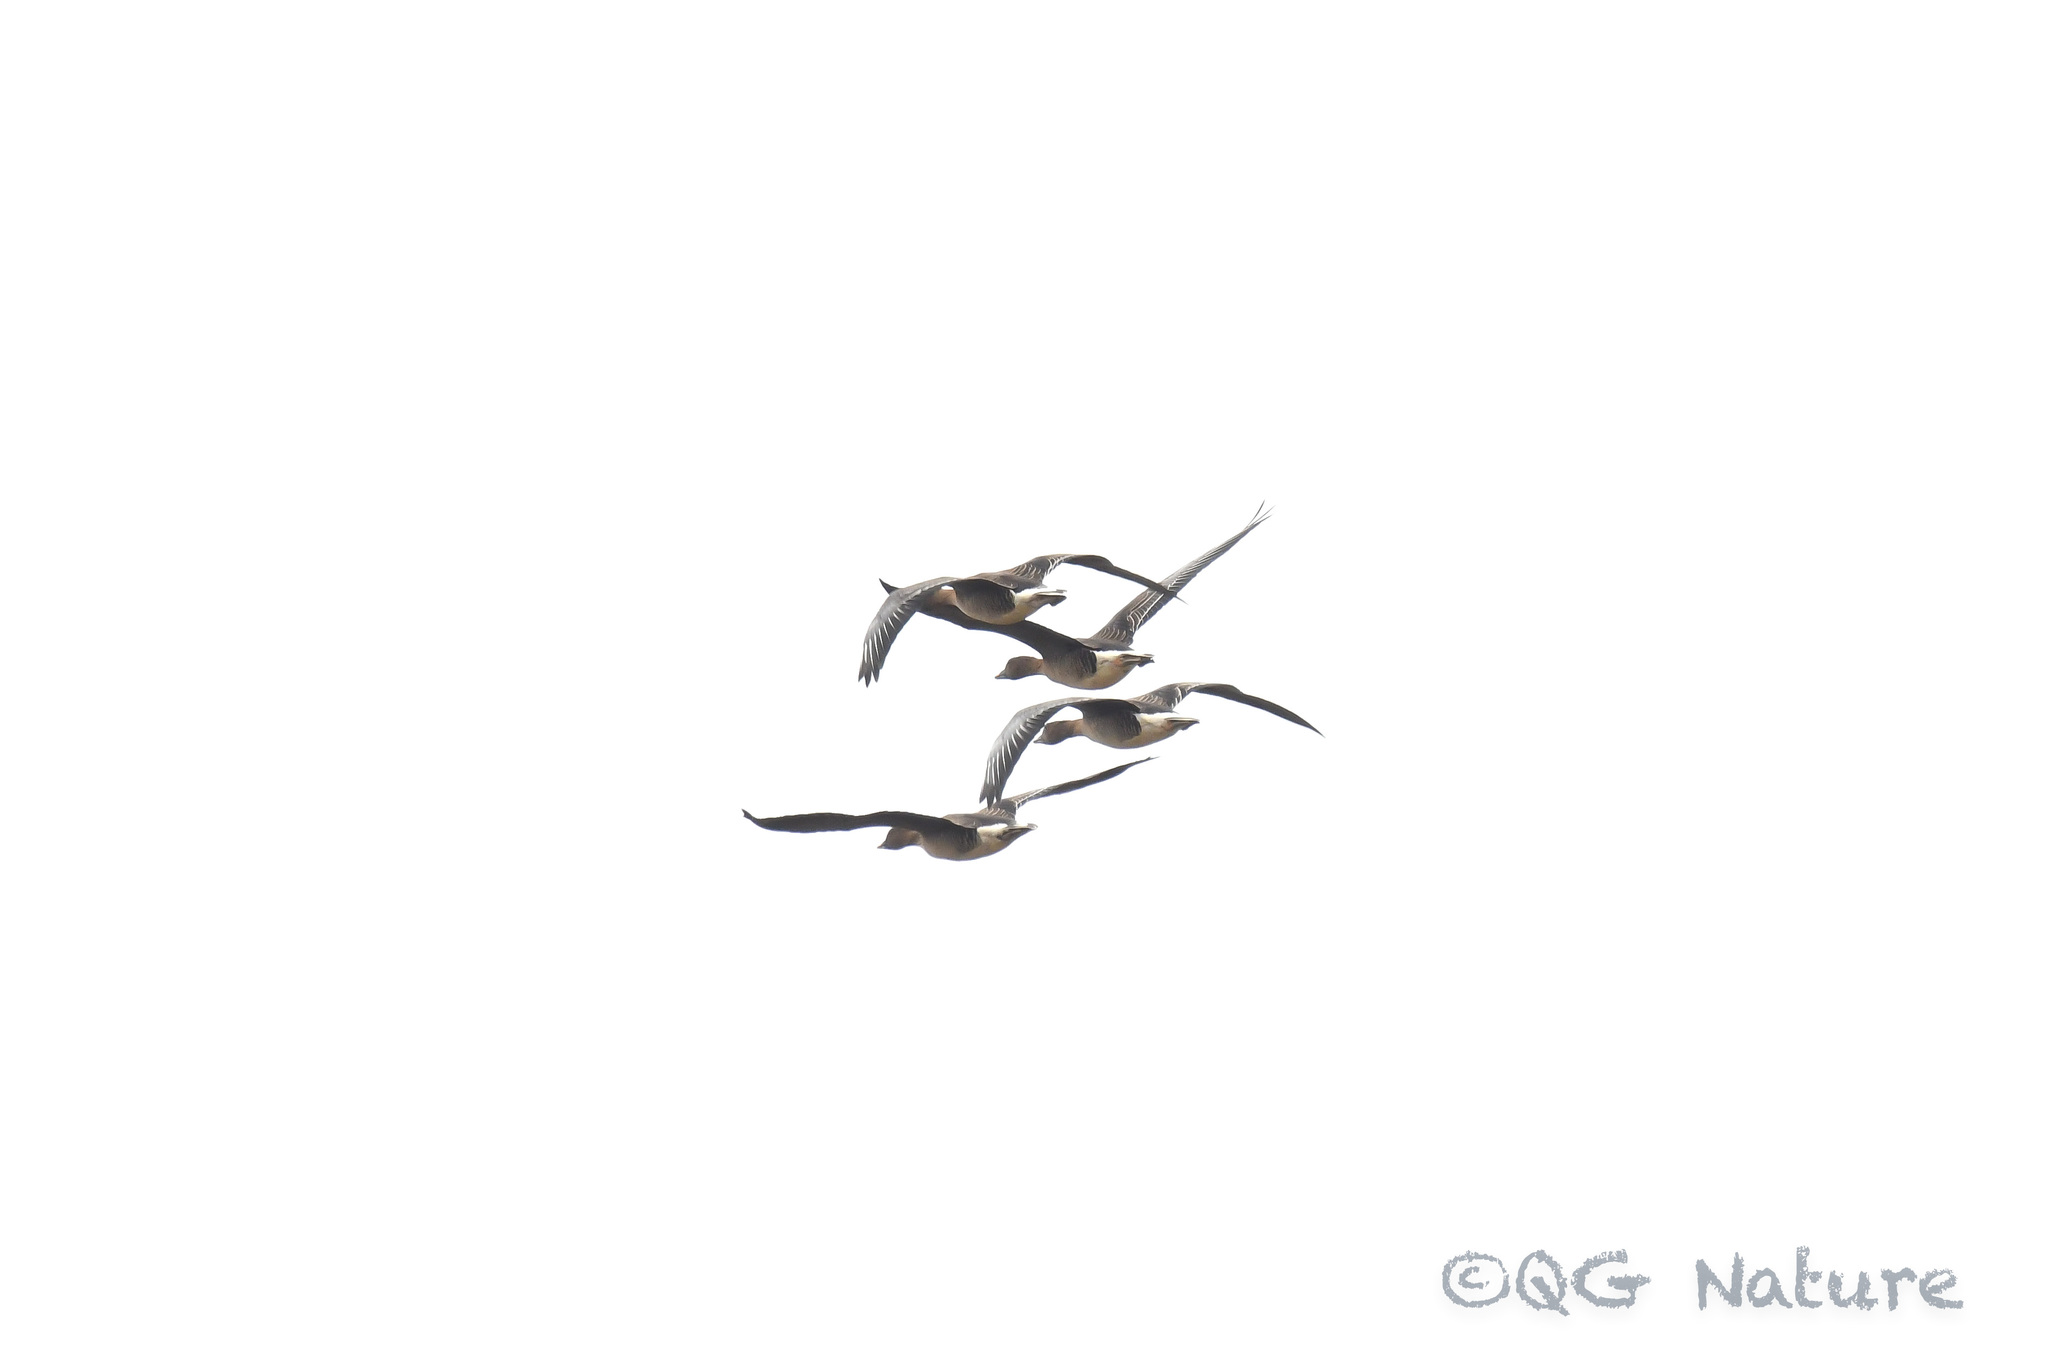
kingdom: Animalia
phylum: Chordata
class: Aves
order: Anseriformes
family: Anatidae
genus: Anser
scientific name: Anser serrirostris
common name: Tundra bean goose
